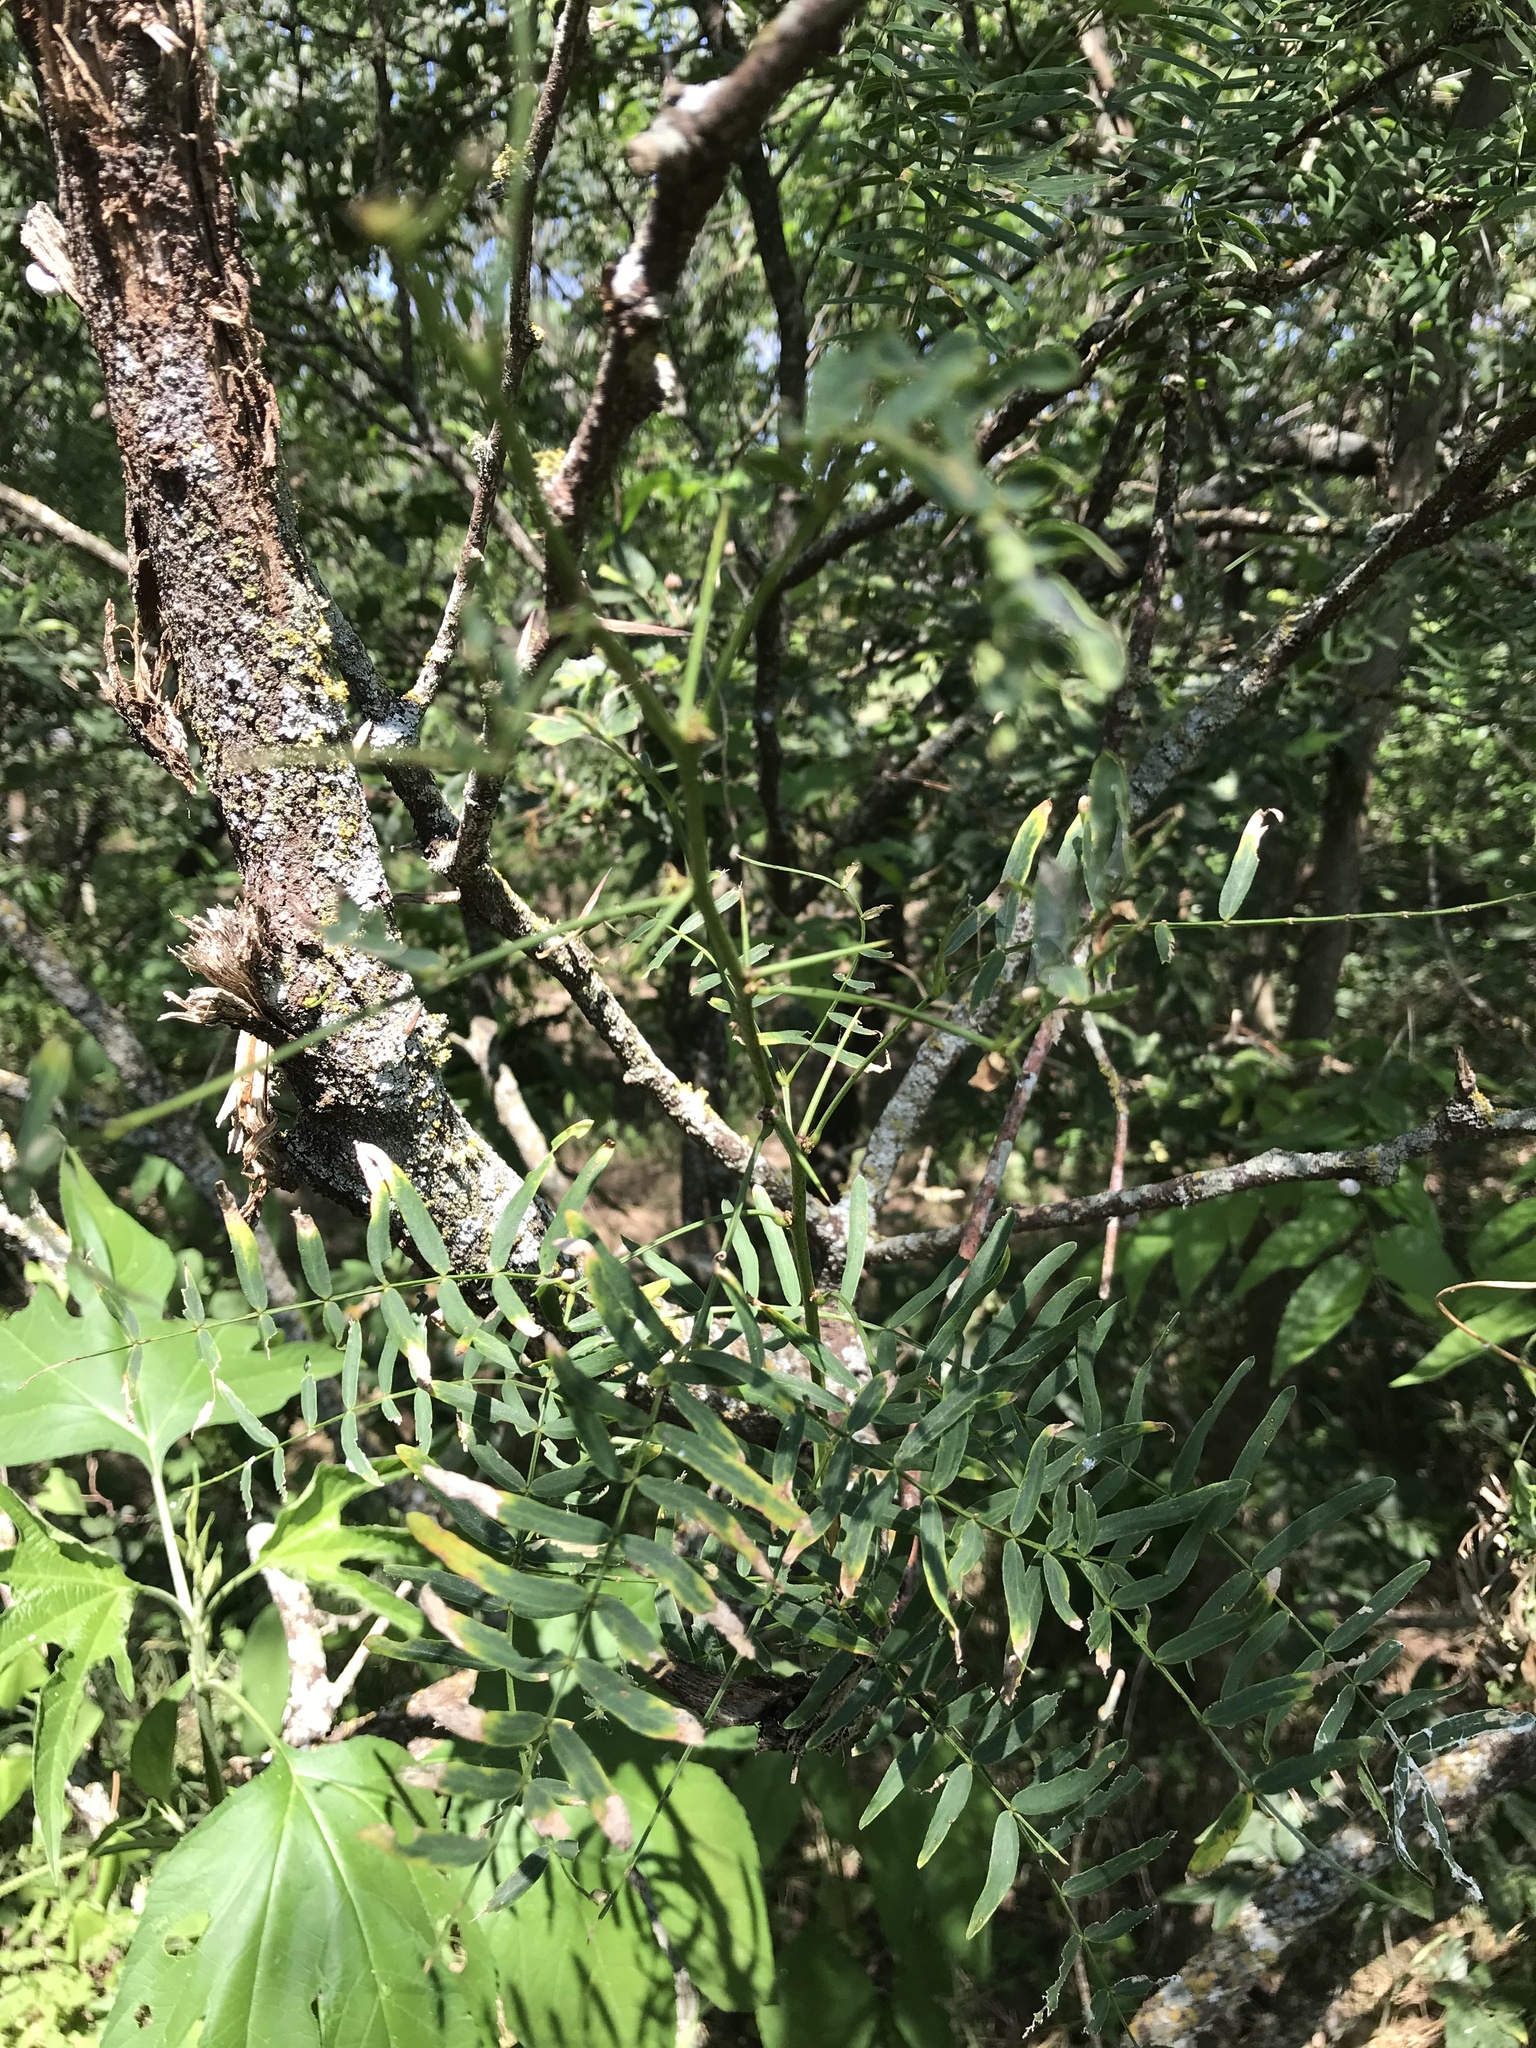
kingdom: Plantae
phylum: Tracheophyta
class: Magnoliopsida
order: Fabales
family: Fabaceae
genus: Prosopis
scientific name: Prosopis glandulosa
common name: Honey mesquite
